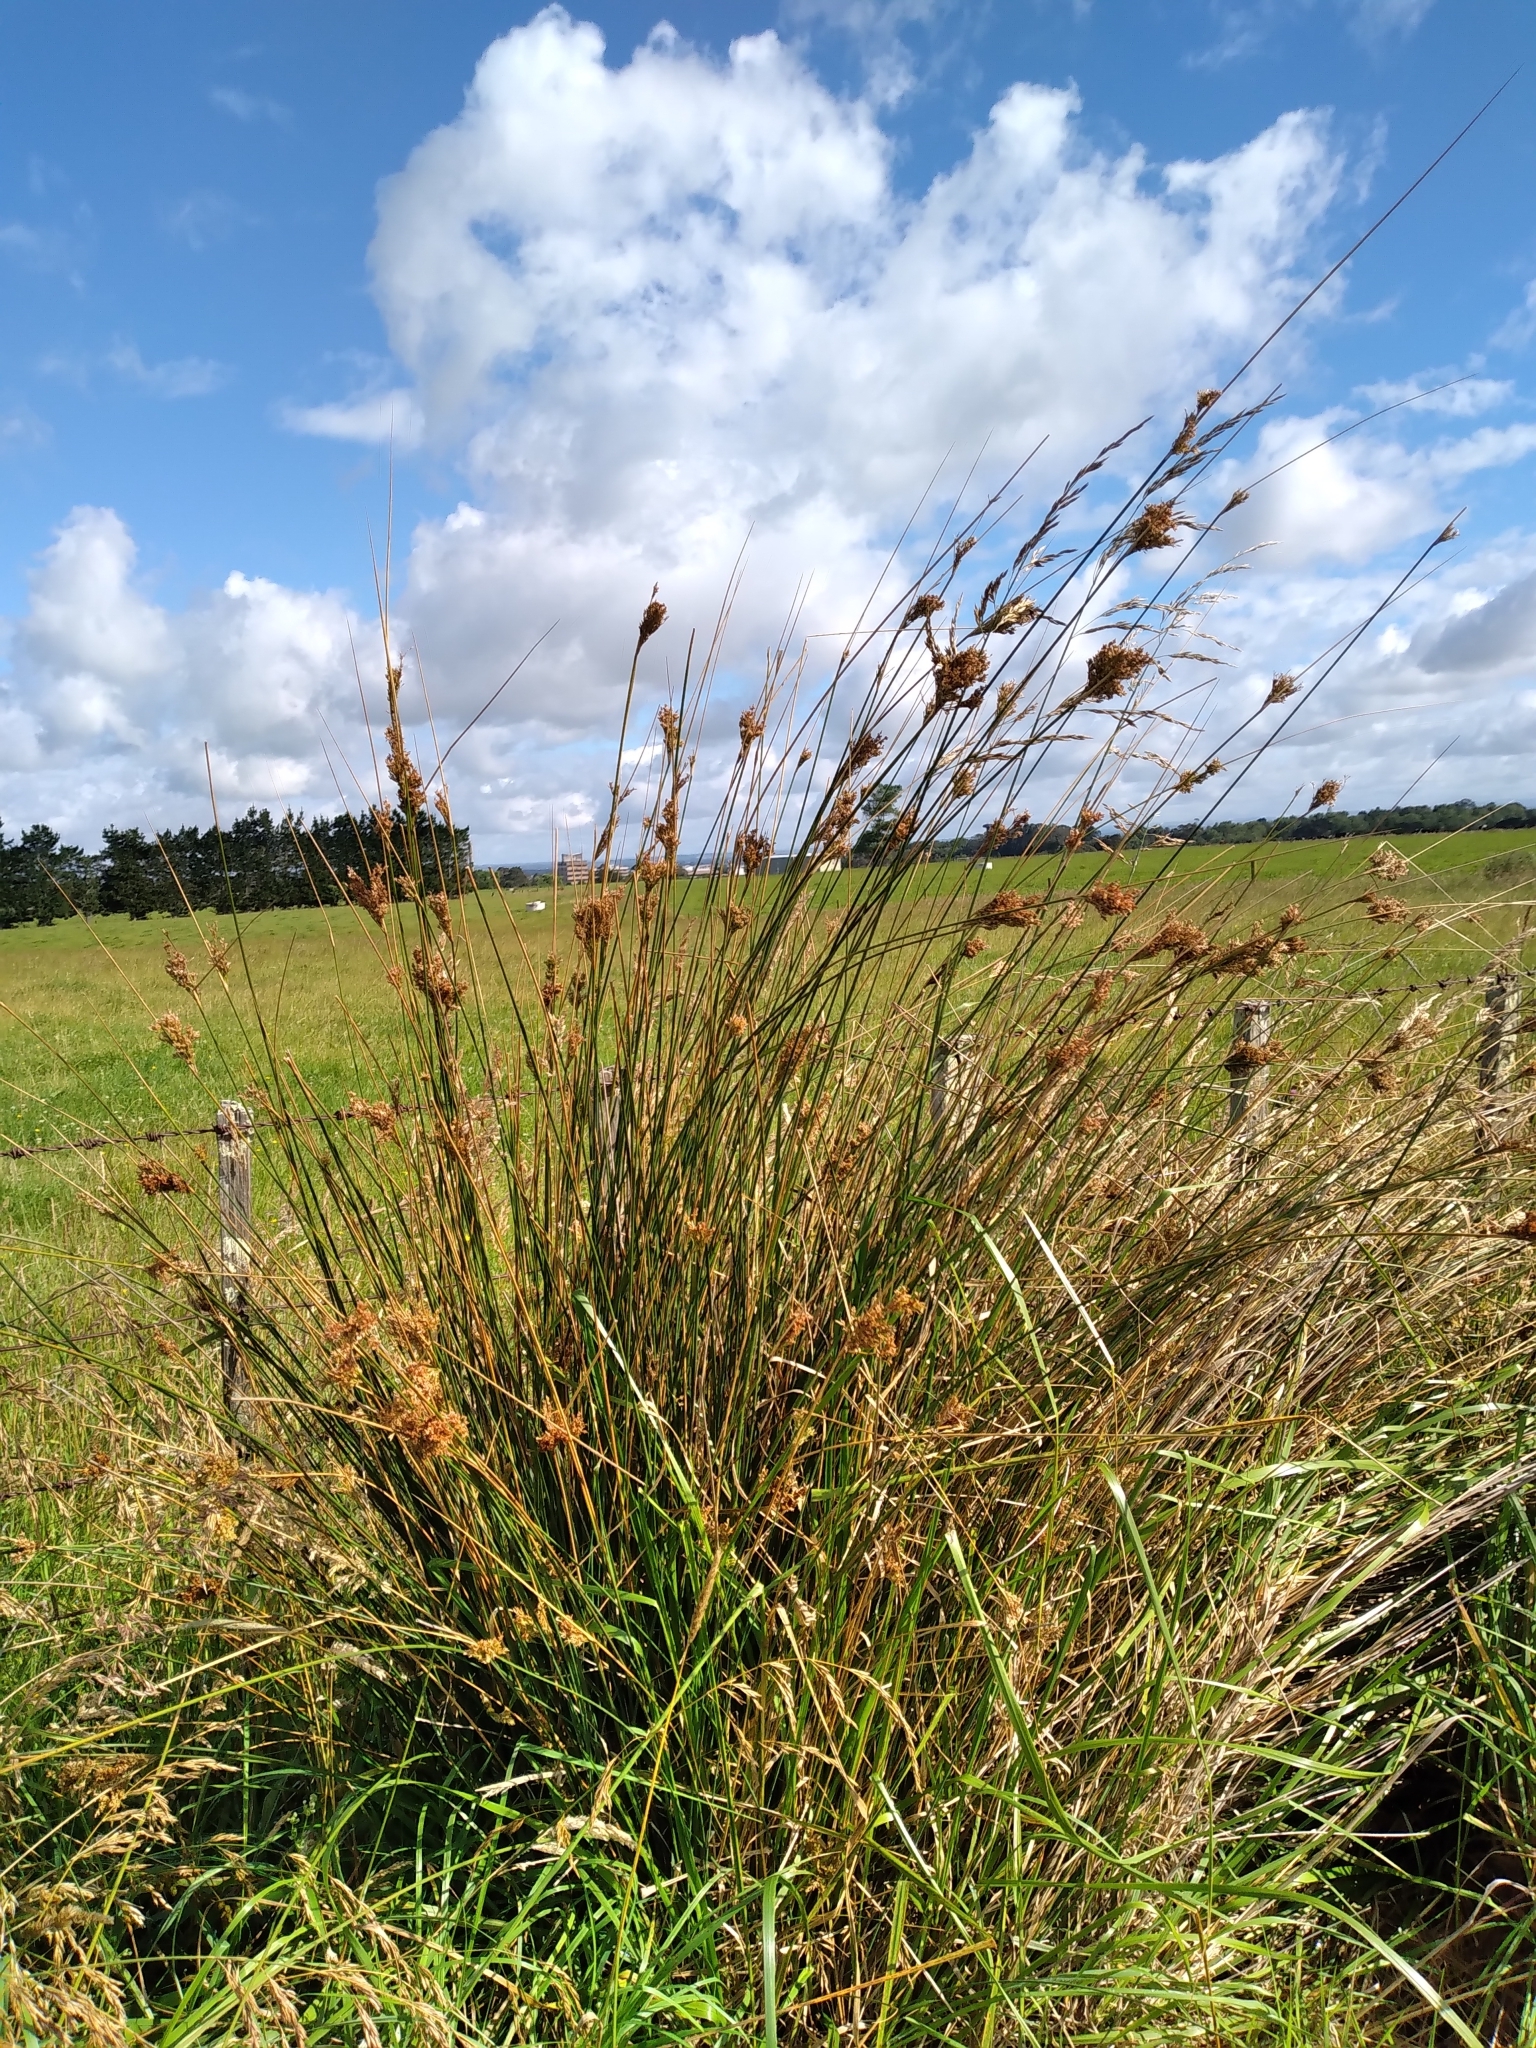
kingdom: Plantae
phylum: Tracheophyta
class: Liliopsida
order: Poales
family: Juncaceae
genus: Juncus
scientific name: Juncus sarophorus
